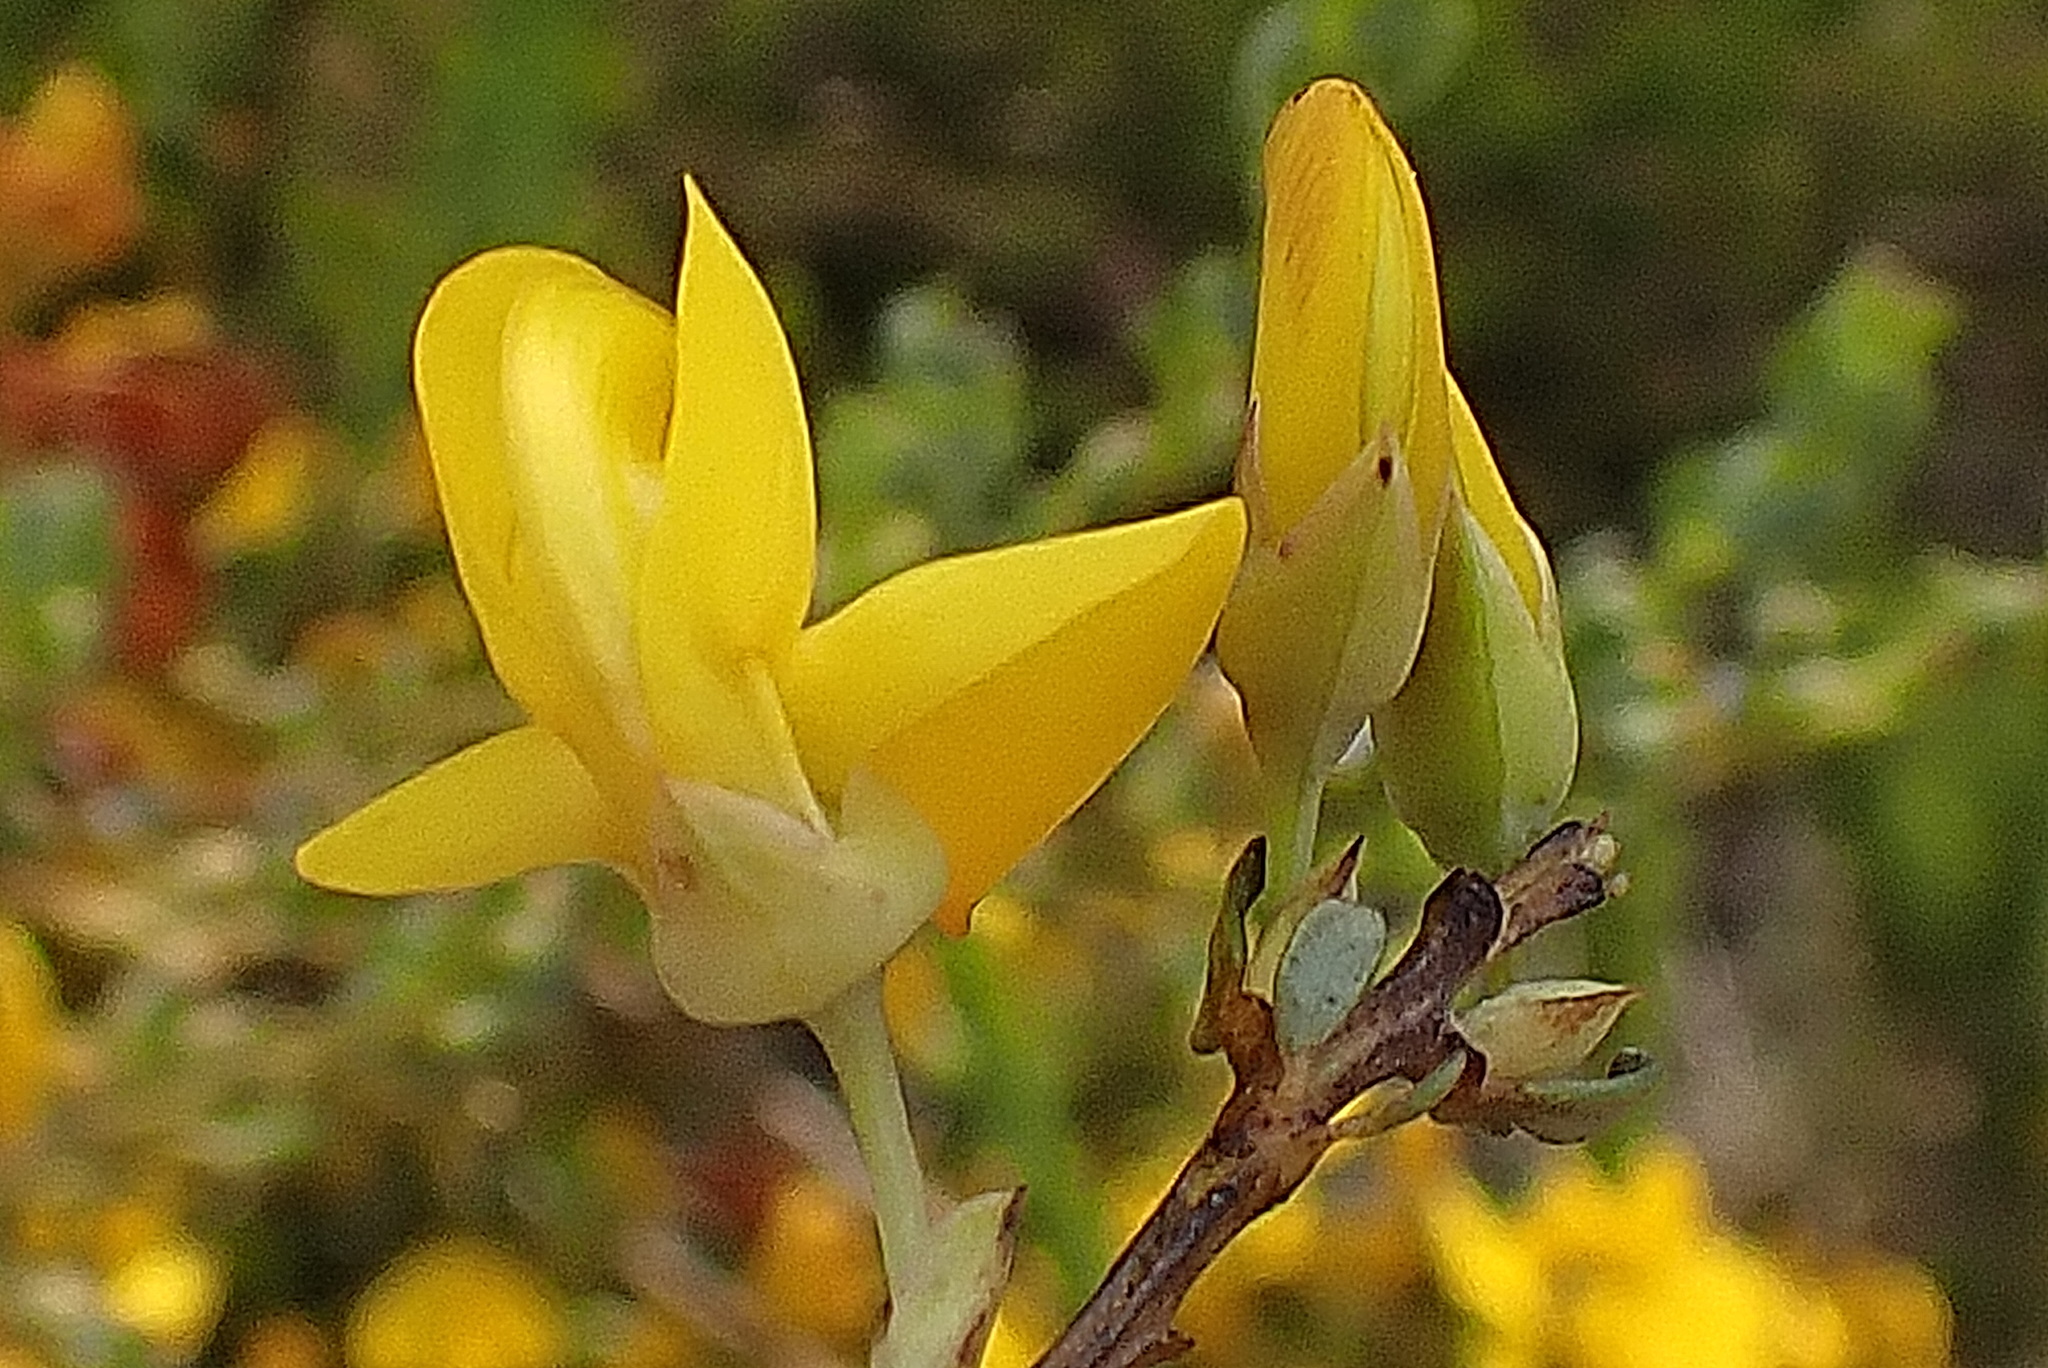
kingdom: Plantae
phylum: Tracheophyta
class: Magnoliopsida
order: Fabales
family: Fabaceae
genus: Cyclopia
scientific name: Cyclopia subternata
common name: Honeybush tea
